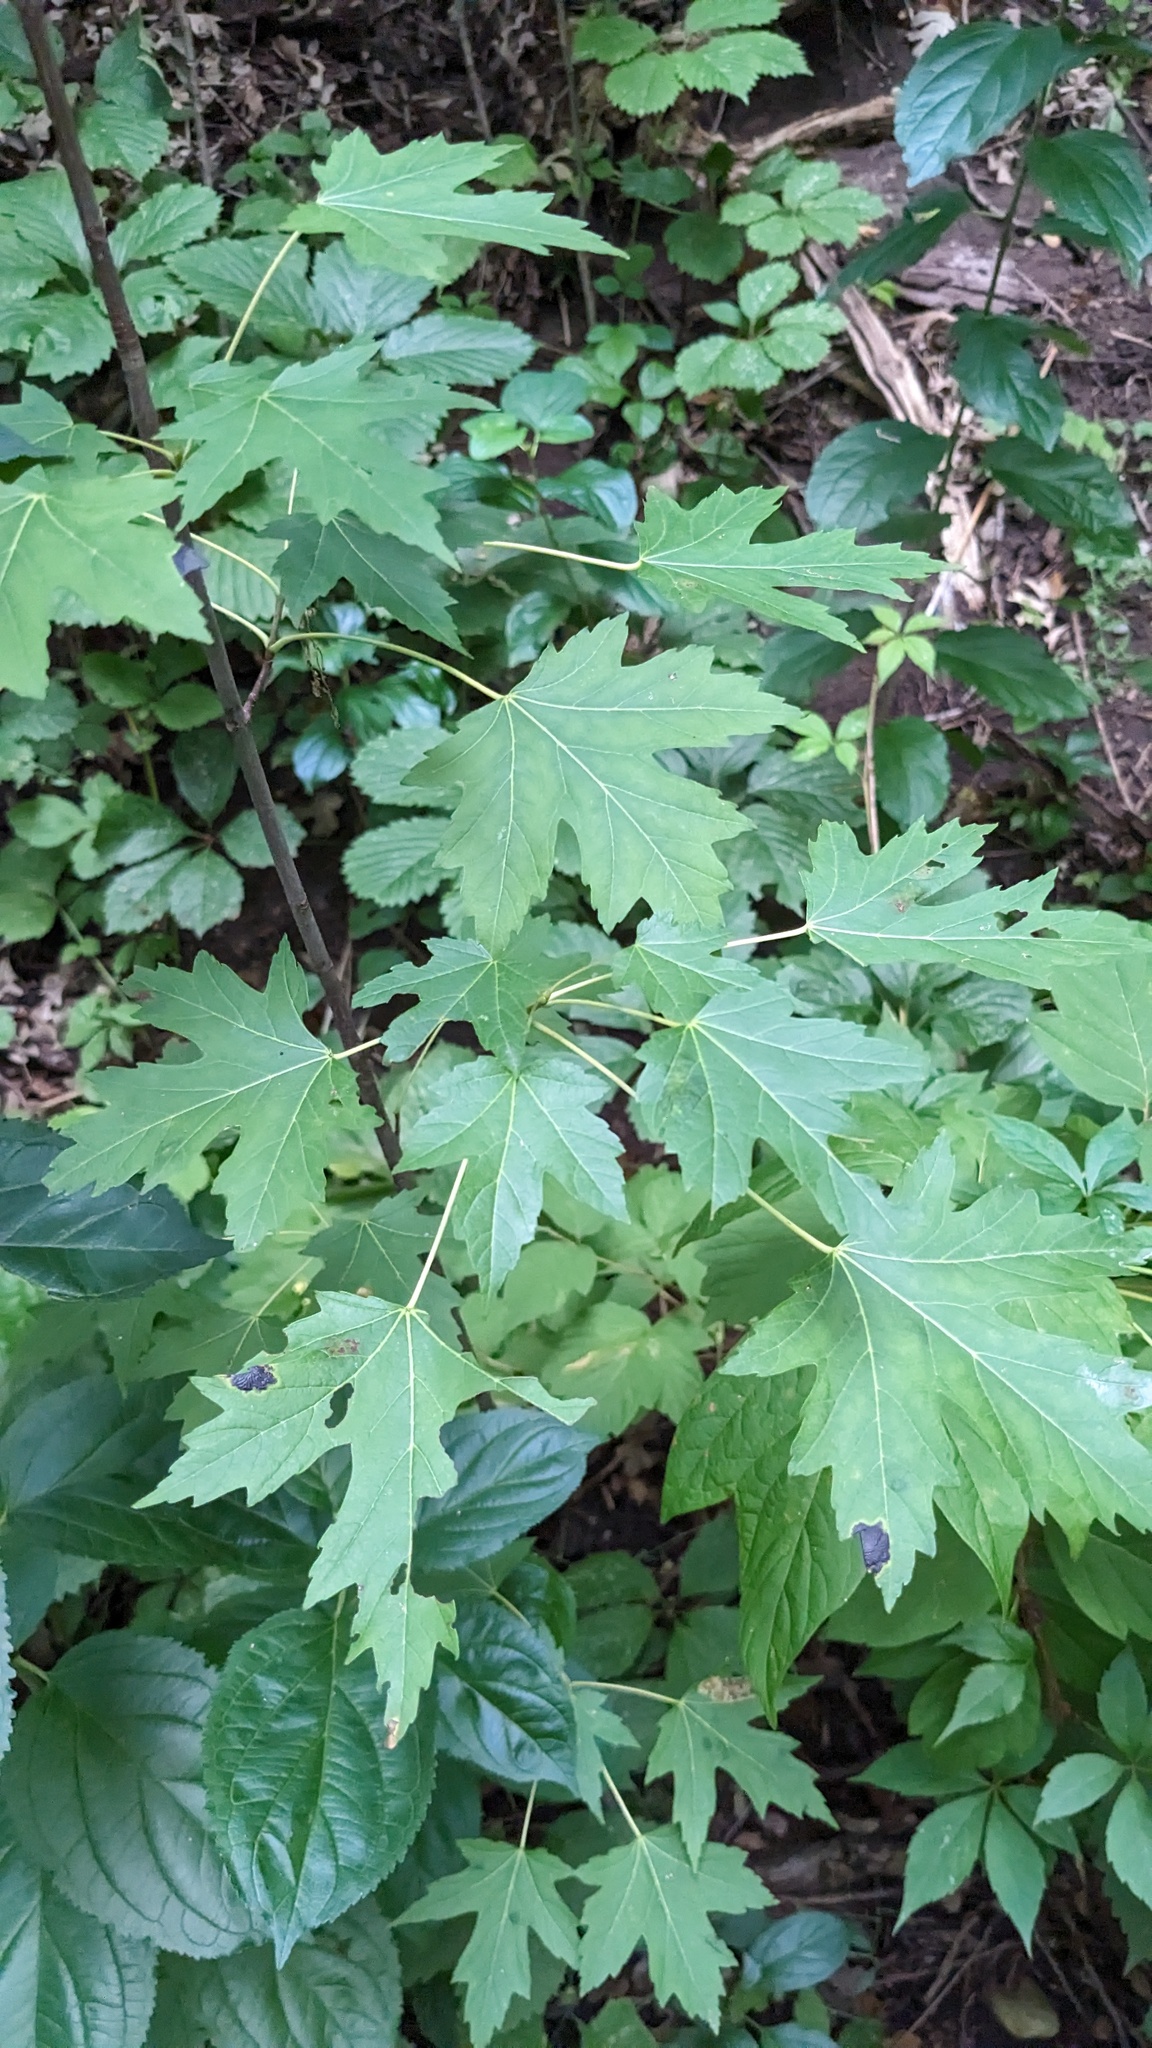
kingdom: Plantae
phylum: Tracheophyta
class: Magnoliopsida
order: Sapindales
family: Sapindaceae
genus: Acer
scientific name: Acer saccharinum
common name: Silver maple
